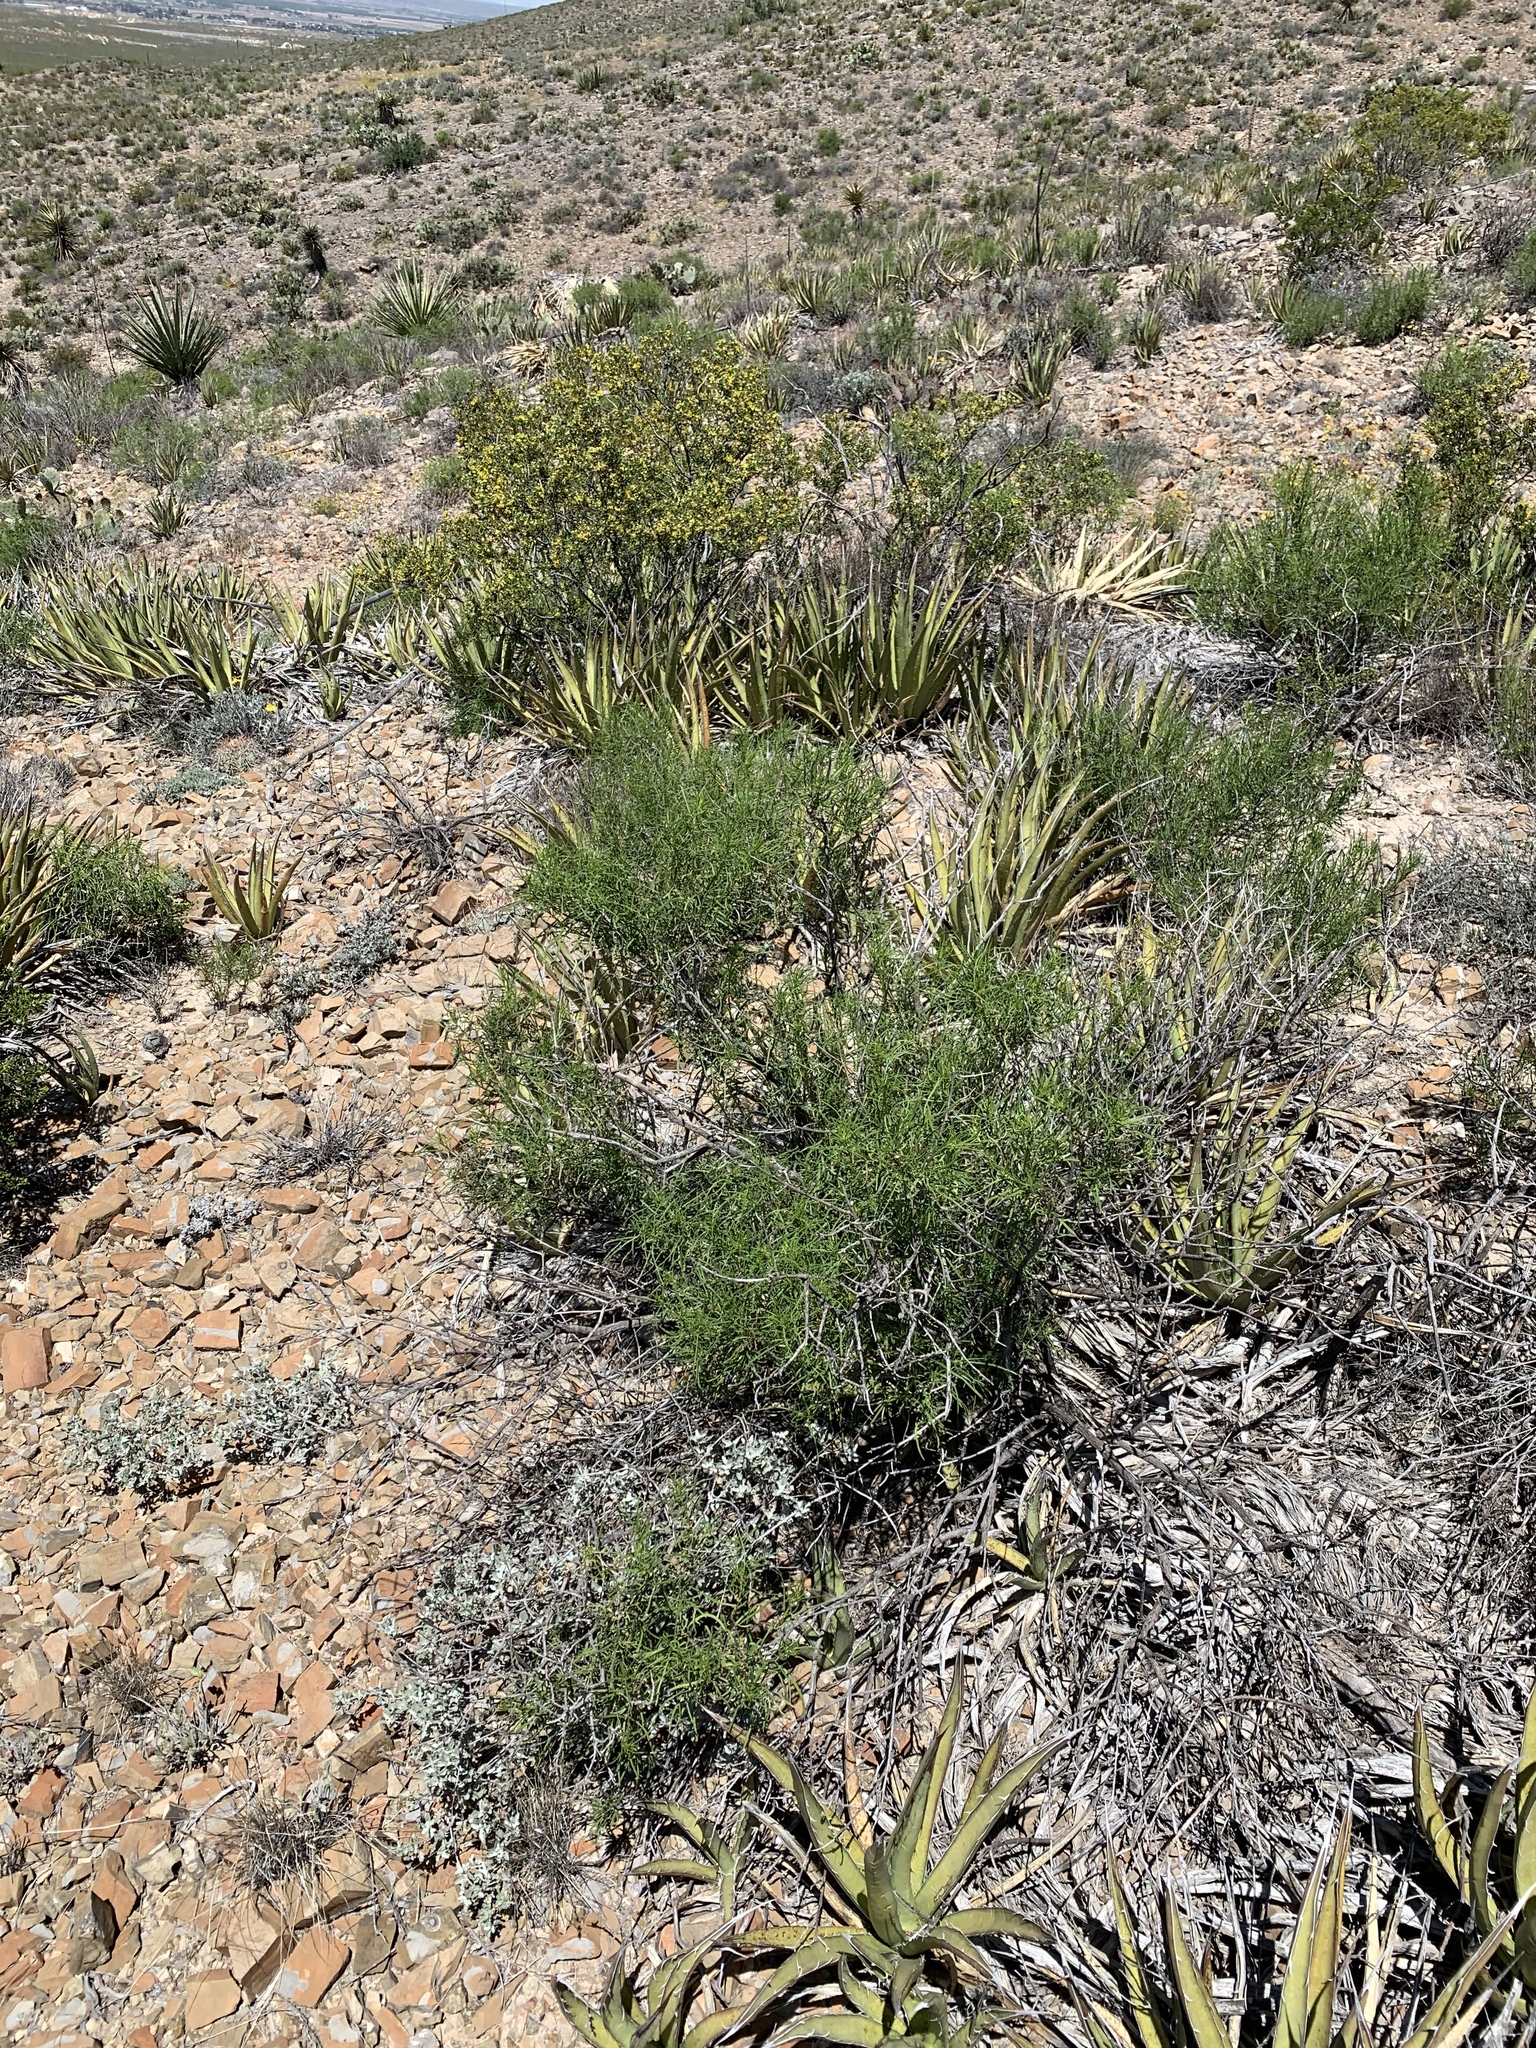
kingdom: Plantae
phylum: Tracheophyta
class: Magnoliopsida
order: Asterales
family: Asteraceae
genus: Sidneya
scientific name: Sidneya tenuifolia
